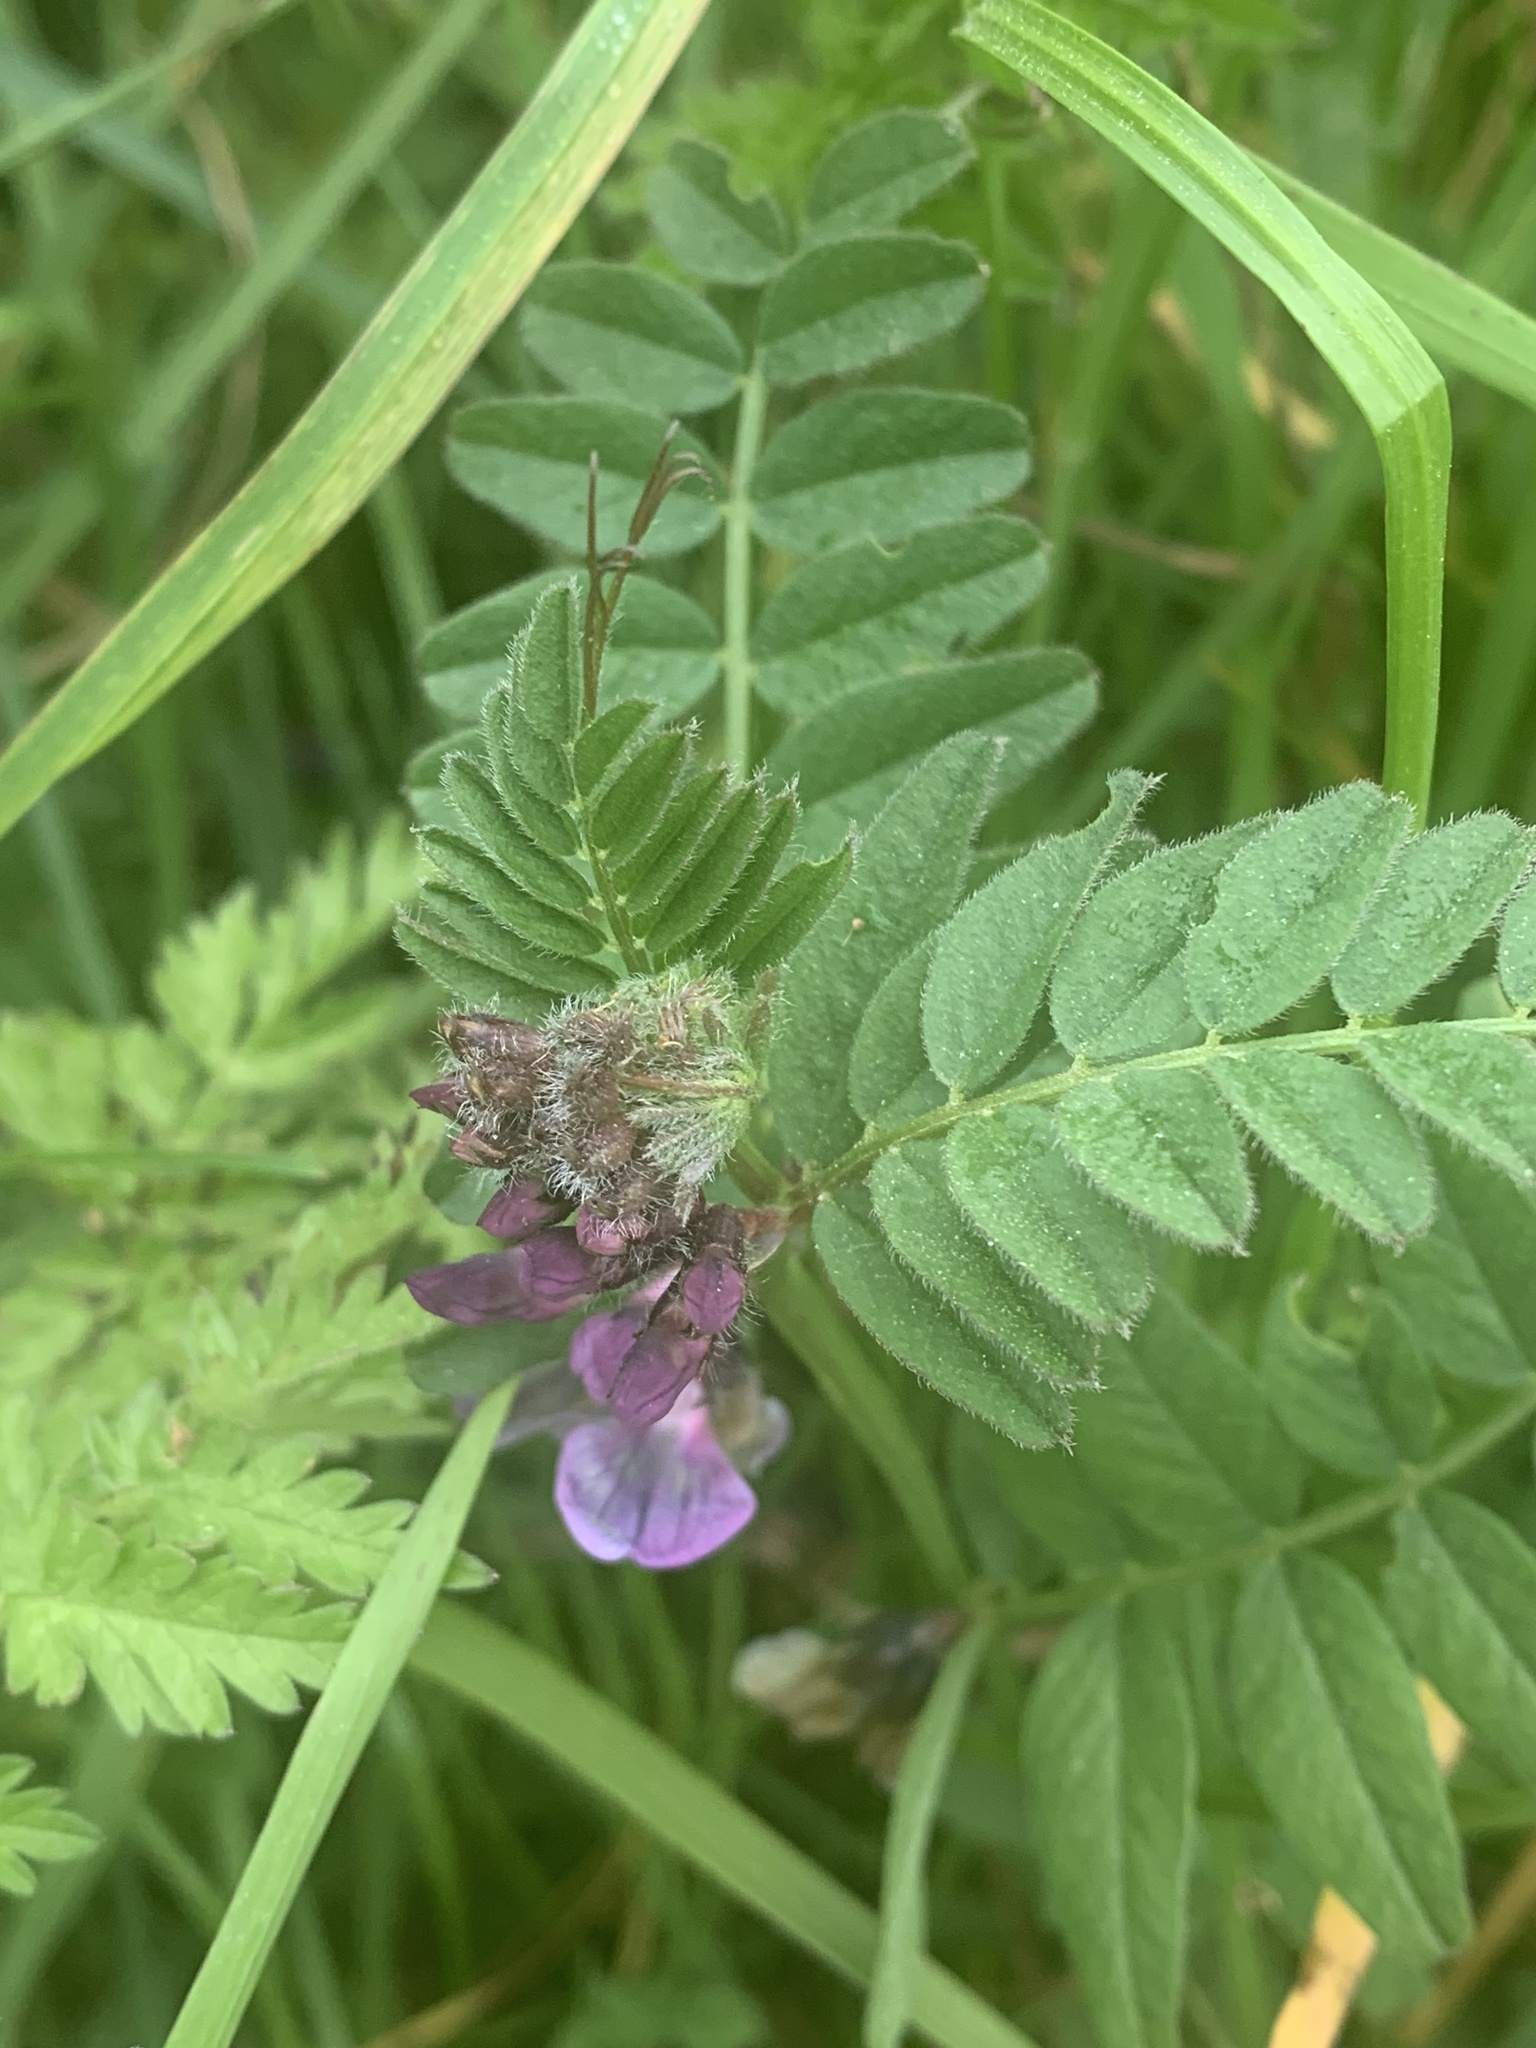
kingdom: Plantae
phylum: Tracheophyta
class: Magnoliopsida
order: Fabales
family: Fabaceae
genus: Vicia
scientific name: Vicia sepium
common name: Bush vetch
